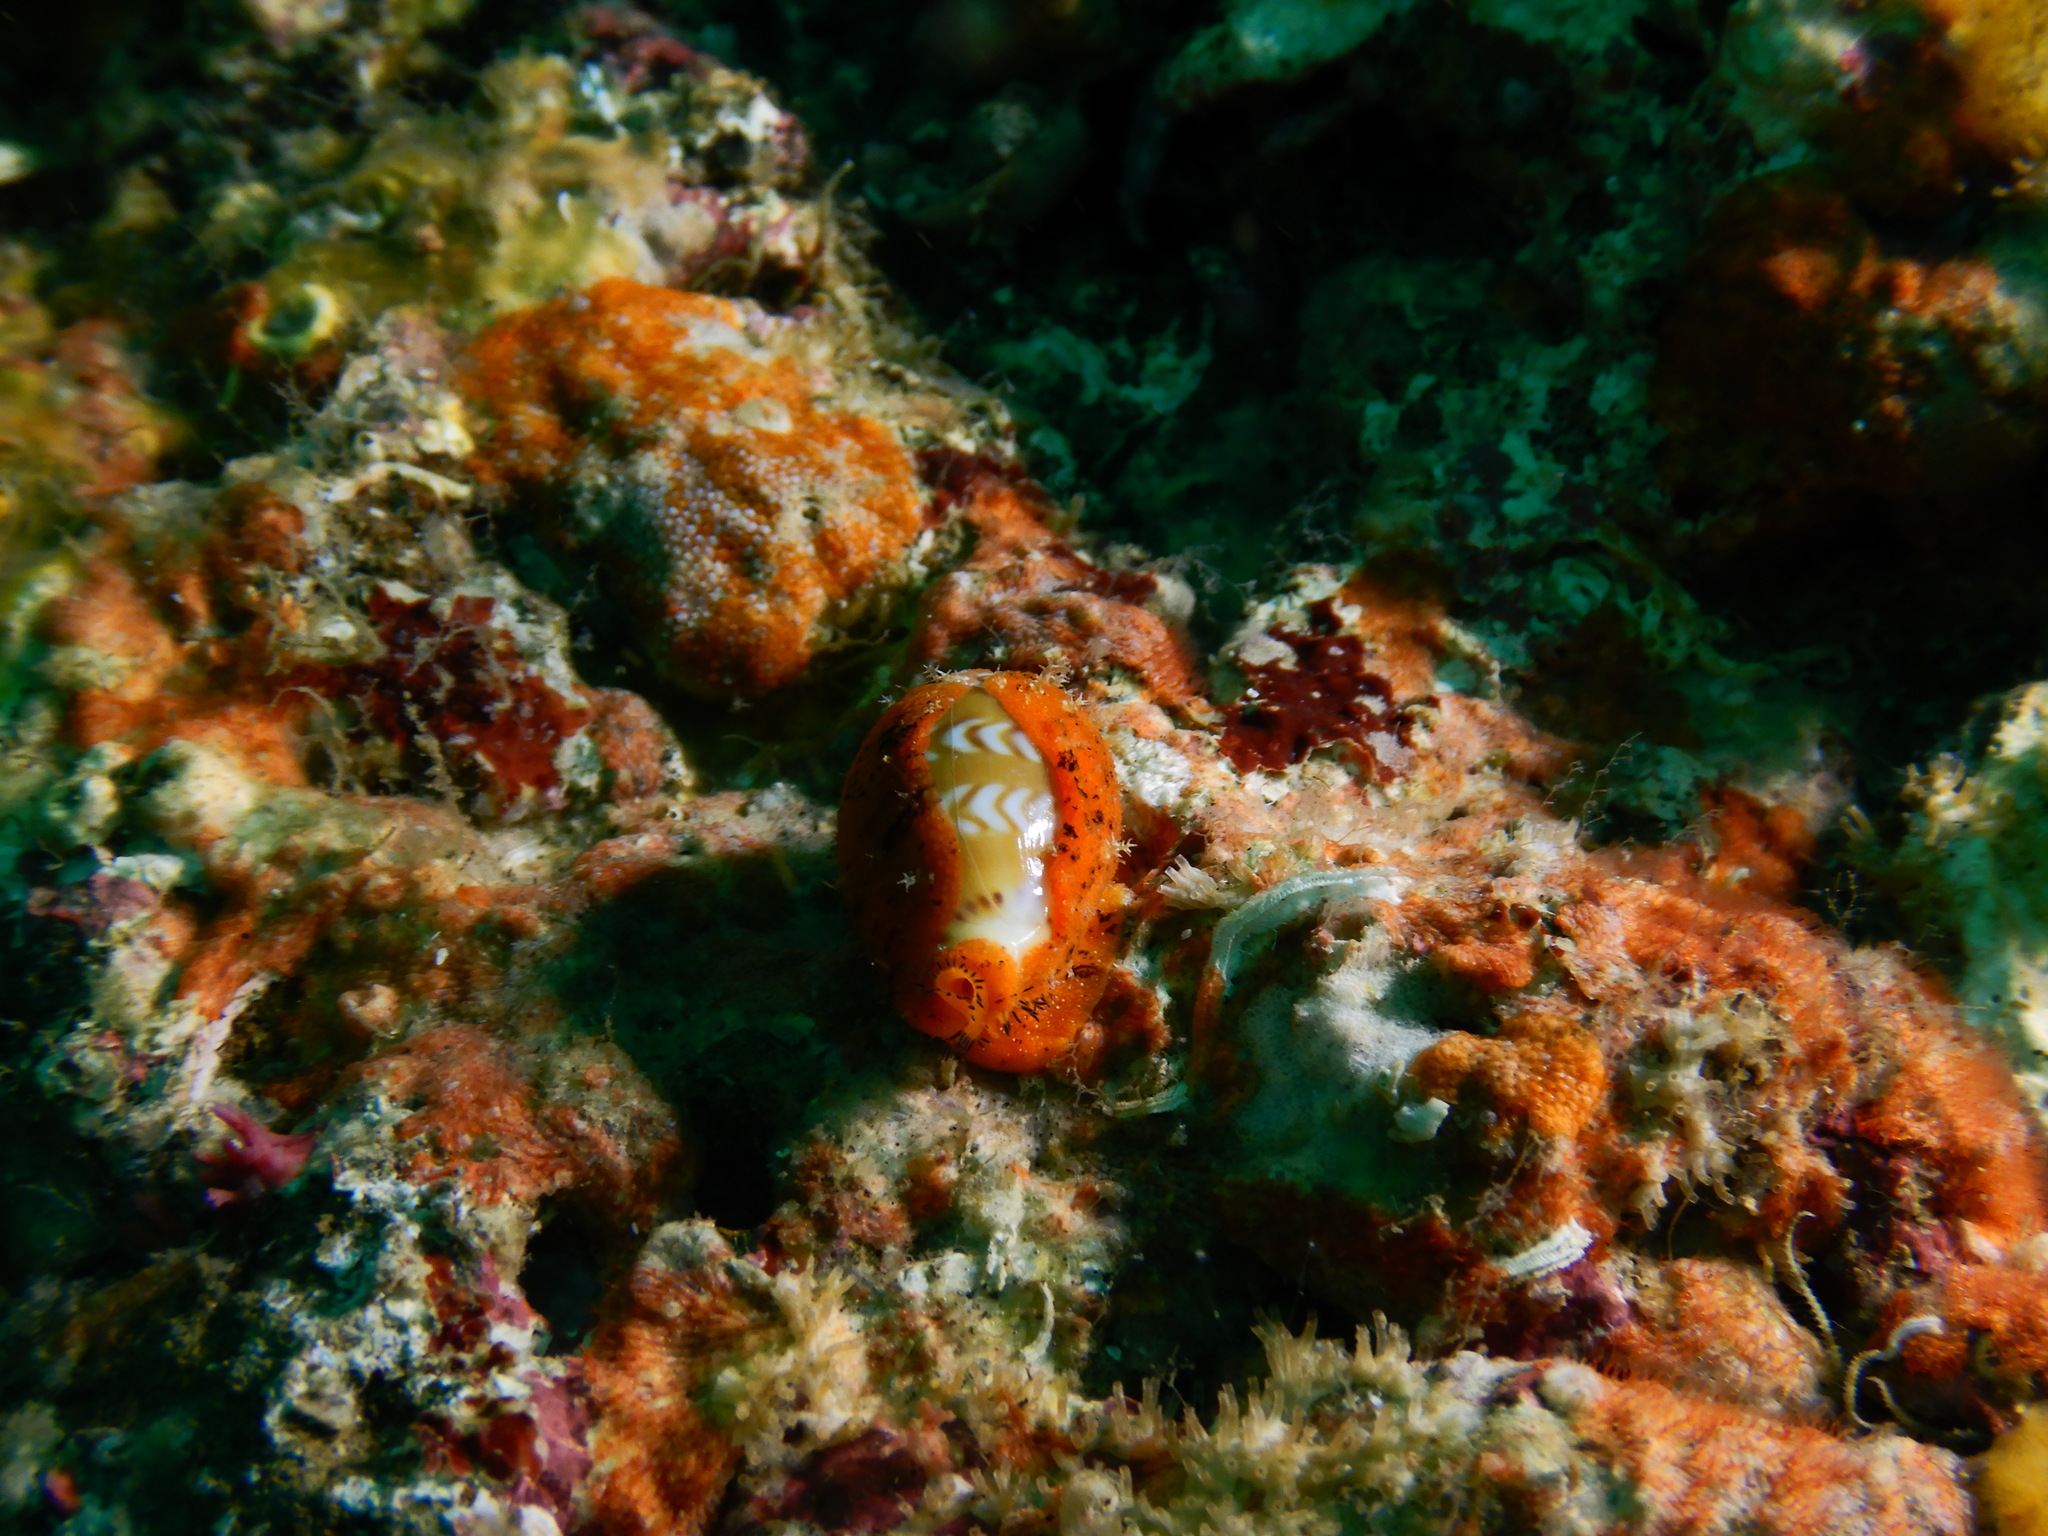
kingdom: Animalia
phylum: Mollusca
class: Gastropoda
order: Littorinimorpha
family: Cypraeidae
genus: Palmadusta
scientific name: Palmadusta ziczac
